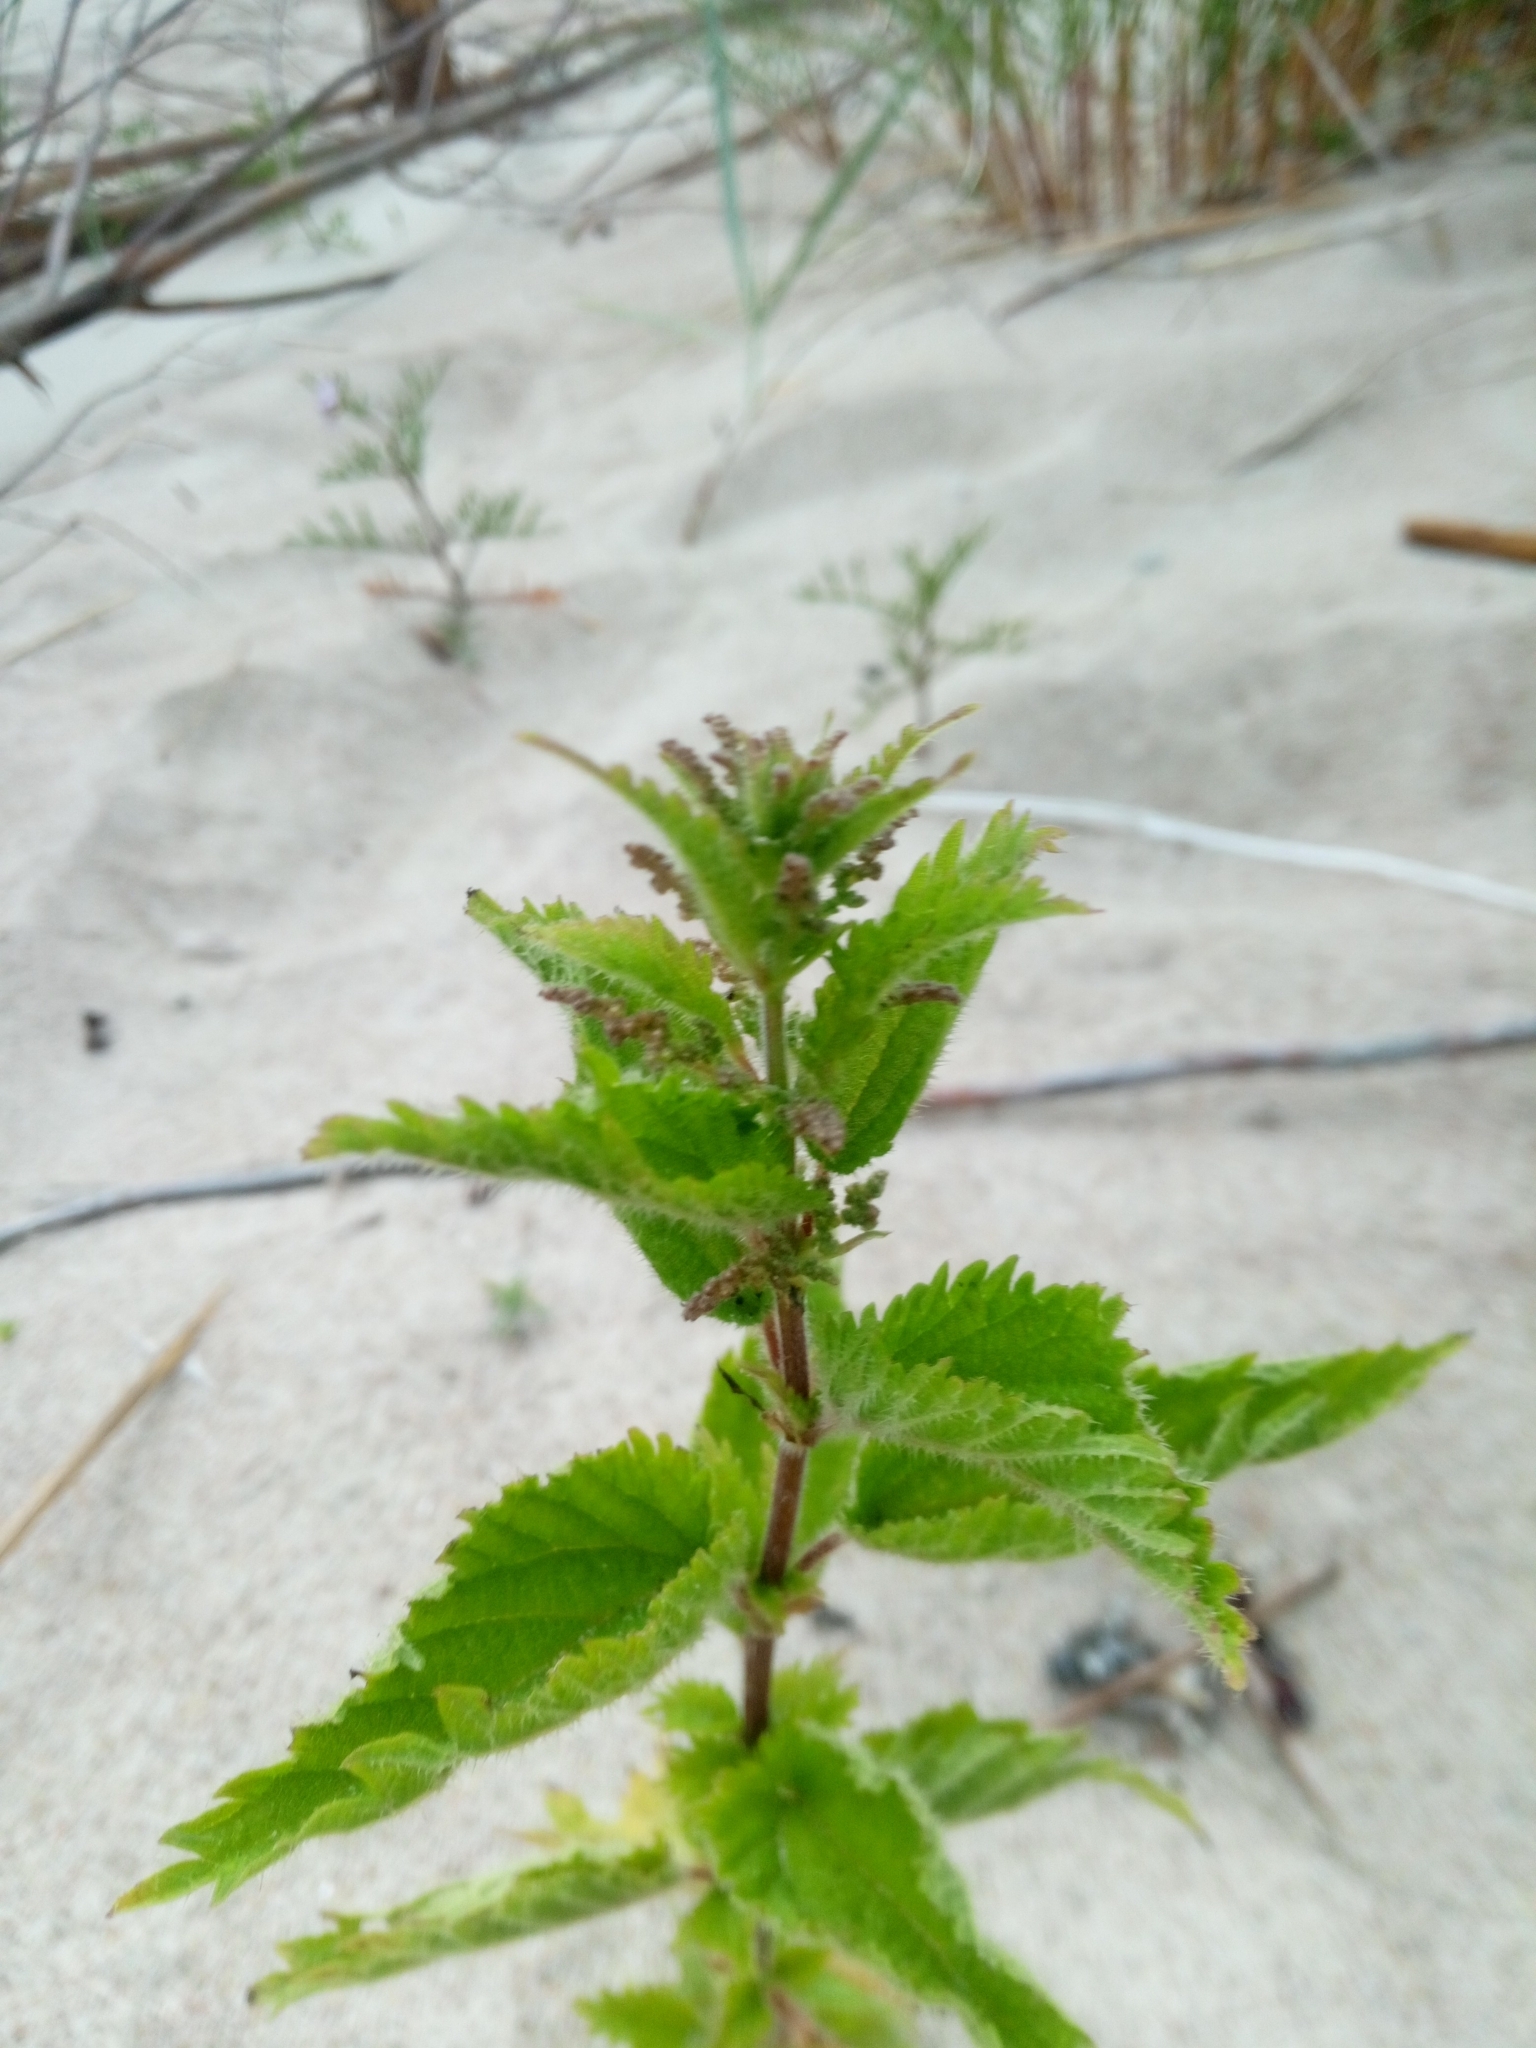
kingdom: Plantae
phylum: Tracheophyta
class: Magnoliopsida
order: Rosales
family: Urticaceae
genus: Urtica
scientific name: Urtica dioica
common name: Common nettle
